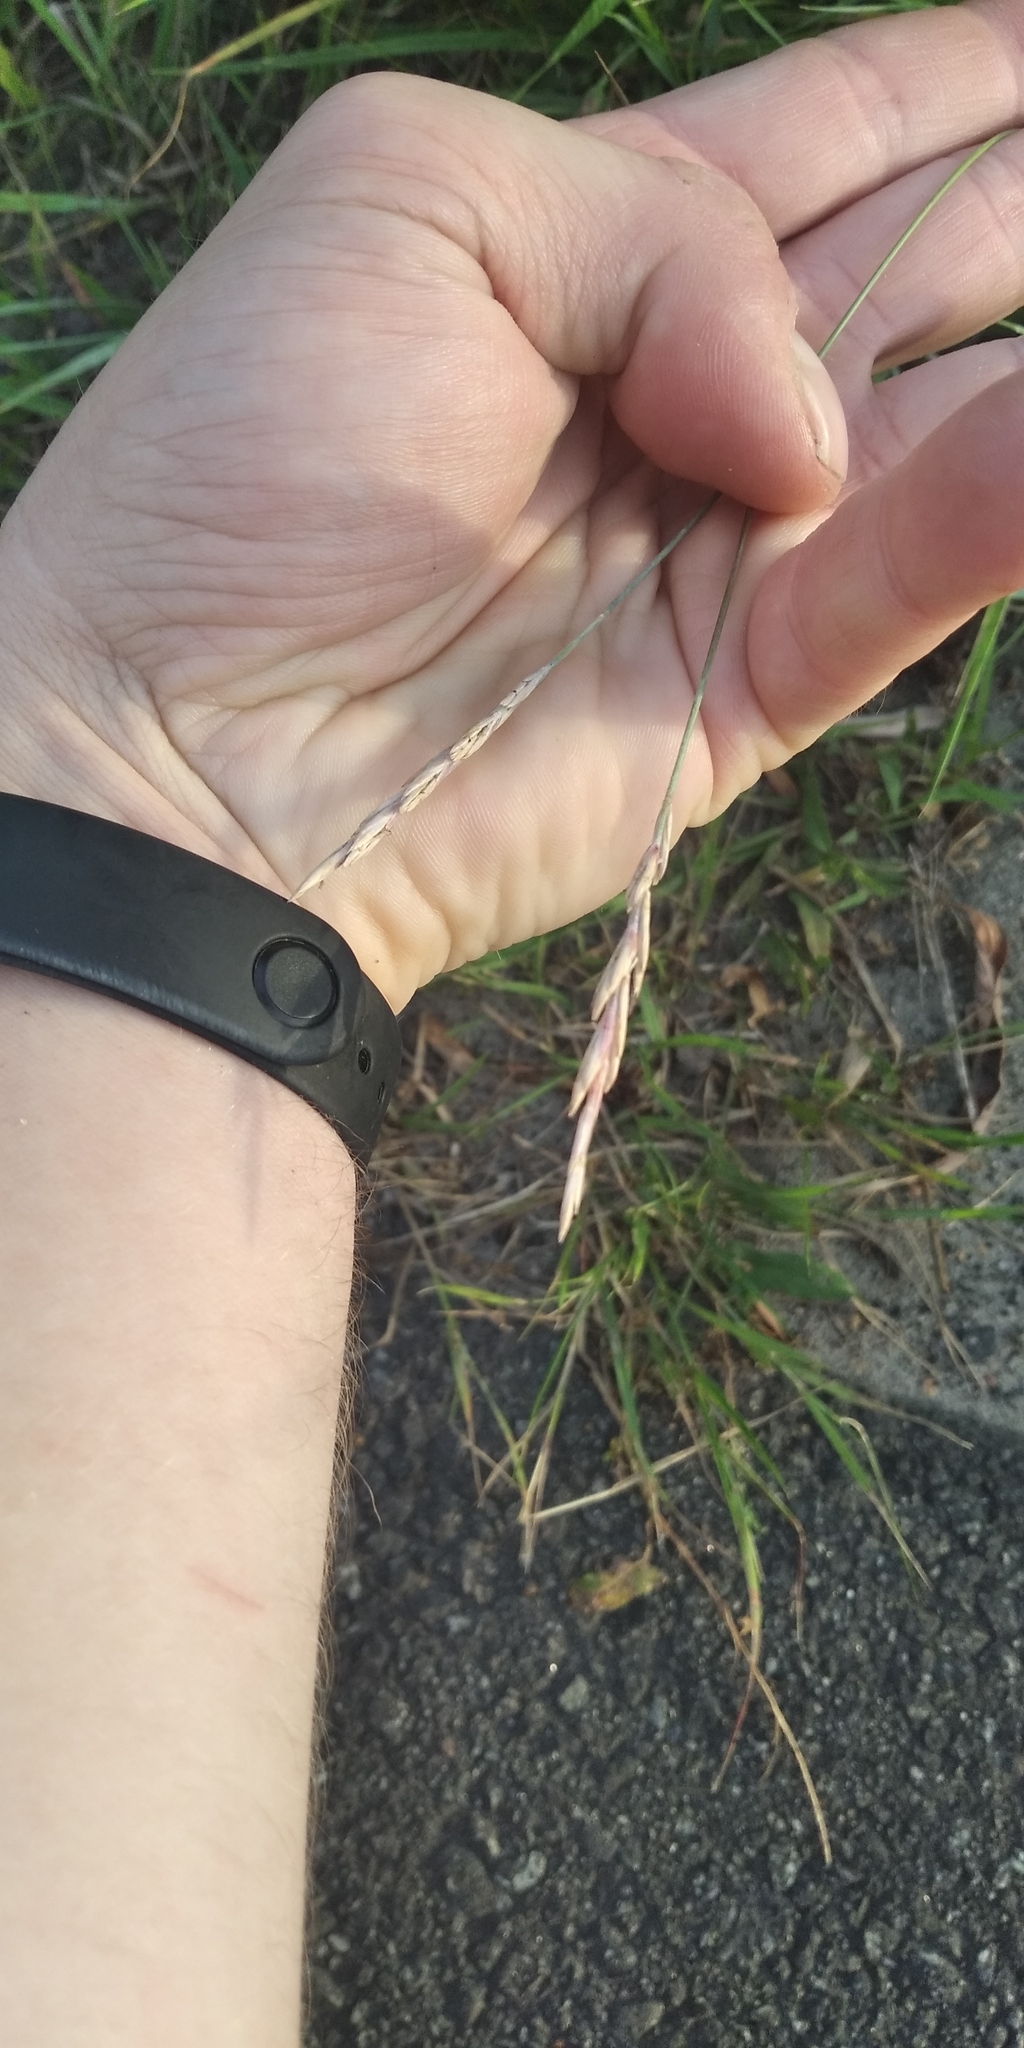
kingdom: Plantae
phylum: Tracheophyta
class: Liliopsida
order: Poales
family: Poaceae
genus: Elymus
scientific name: Elymus repens
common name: Quackgrass
